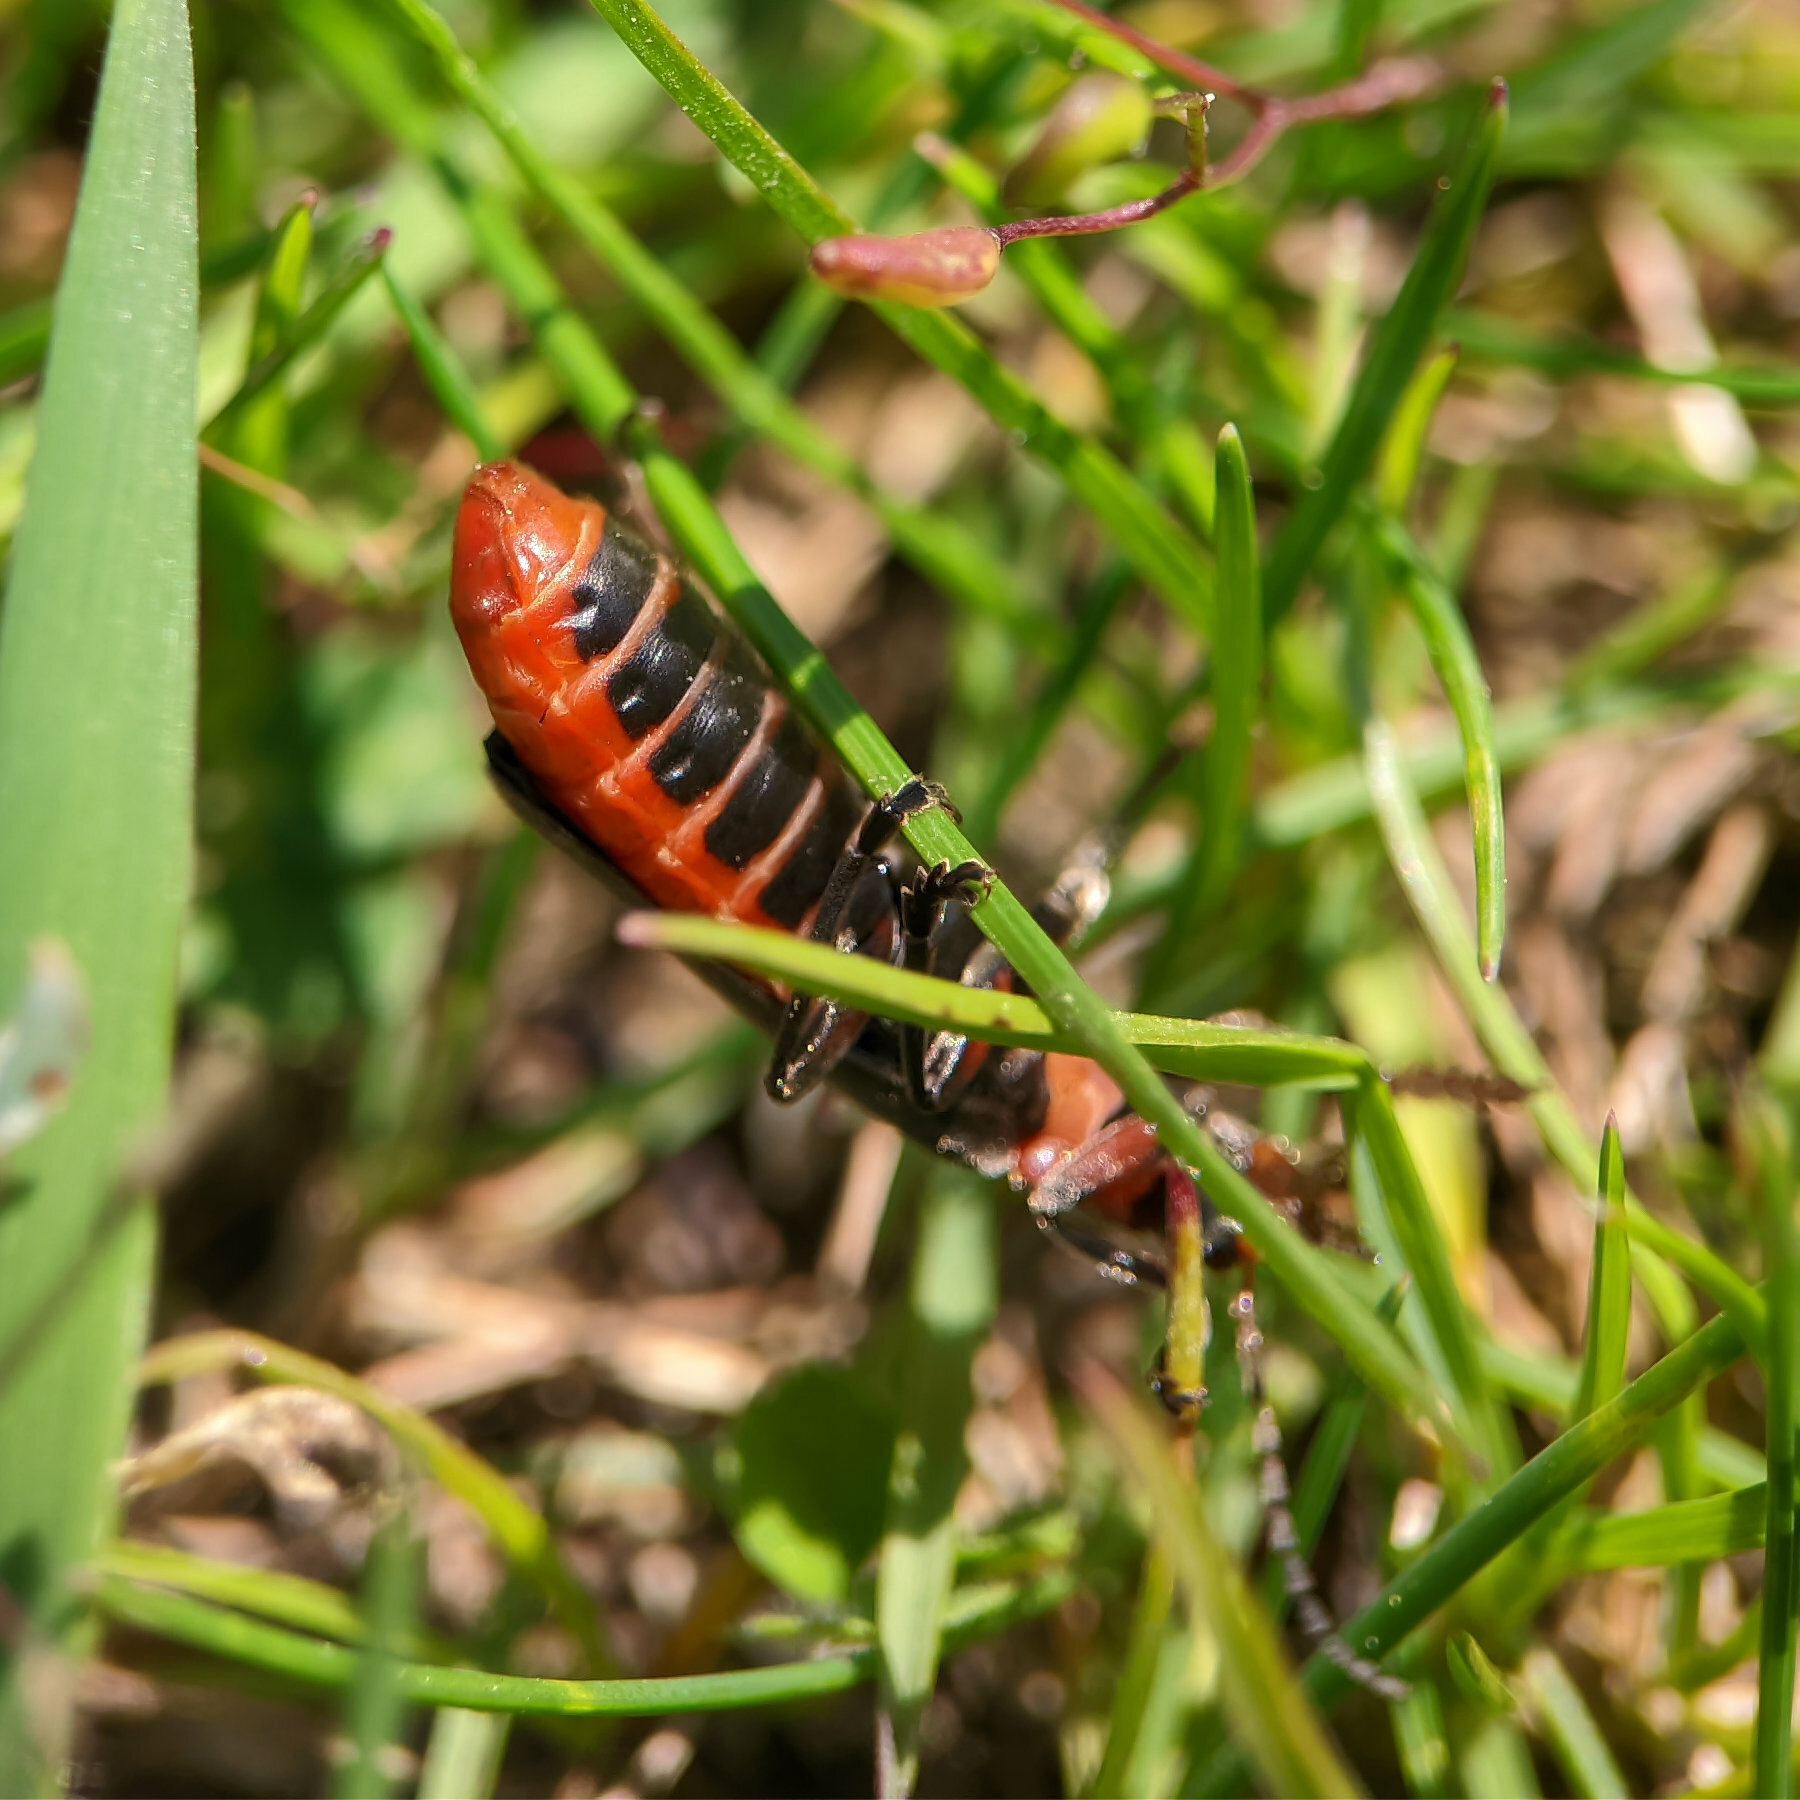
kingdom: Animalia
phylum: Arthropoda
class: Insecta
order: Coleoptera
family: Cantharidae
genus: Cantharis
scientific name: Cantharis rustica
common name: Soldier beetle
